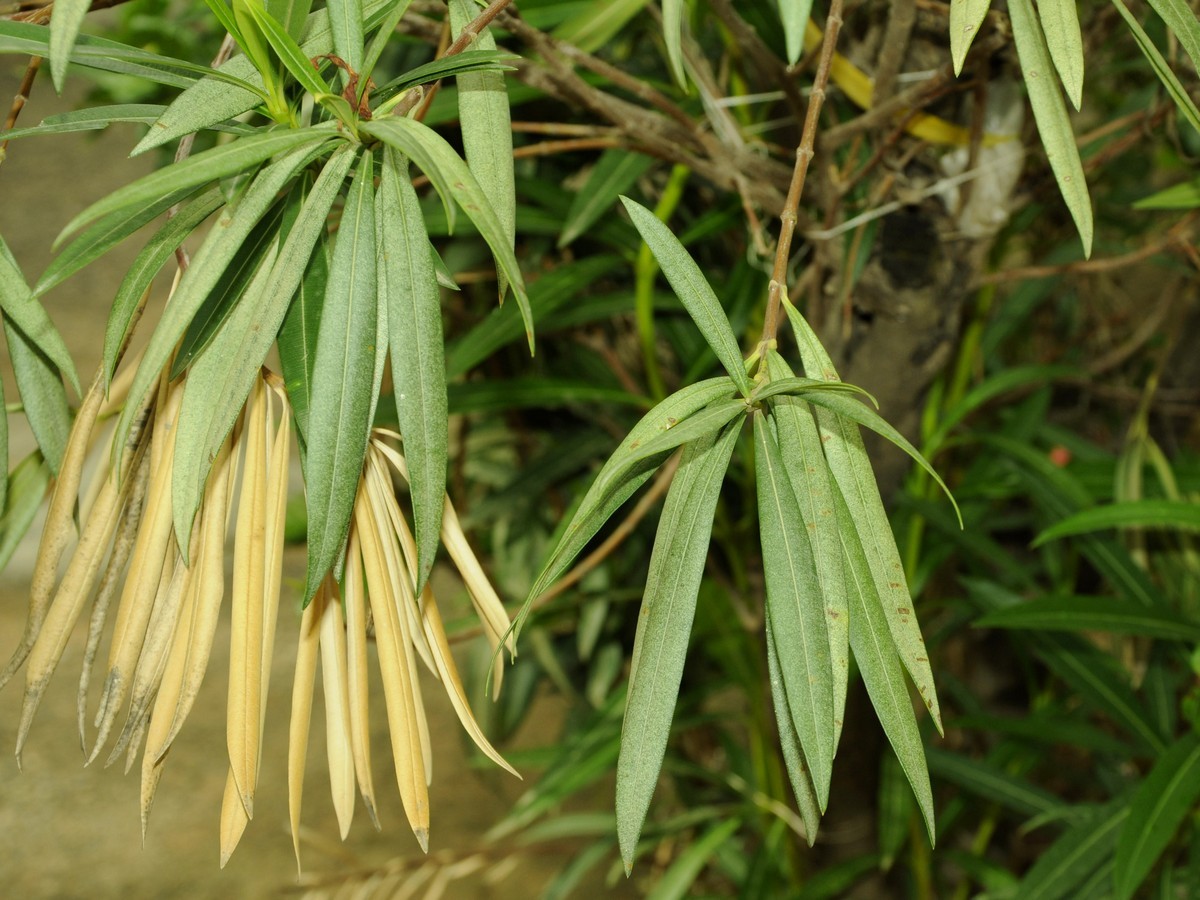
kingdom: Plantae
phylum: Tracheophyta
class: Magnoliopsida
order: Gentianales
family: Apocynaceae
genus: Nerium
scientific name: Nerium oleander
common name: Oleander
